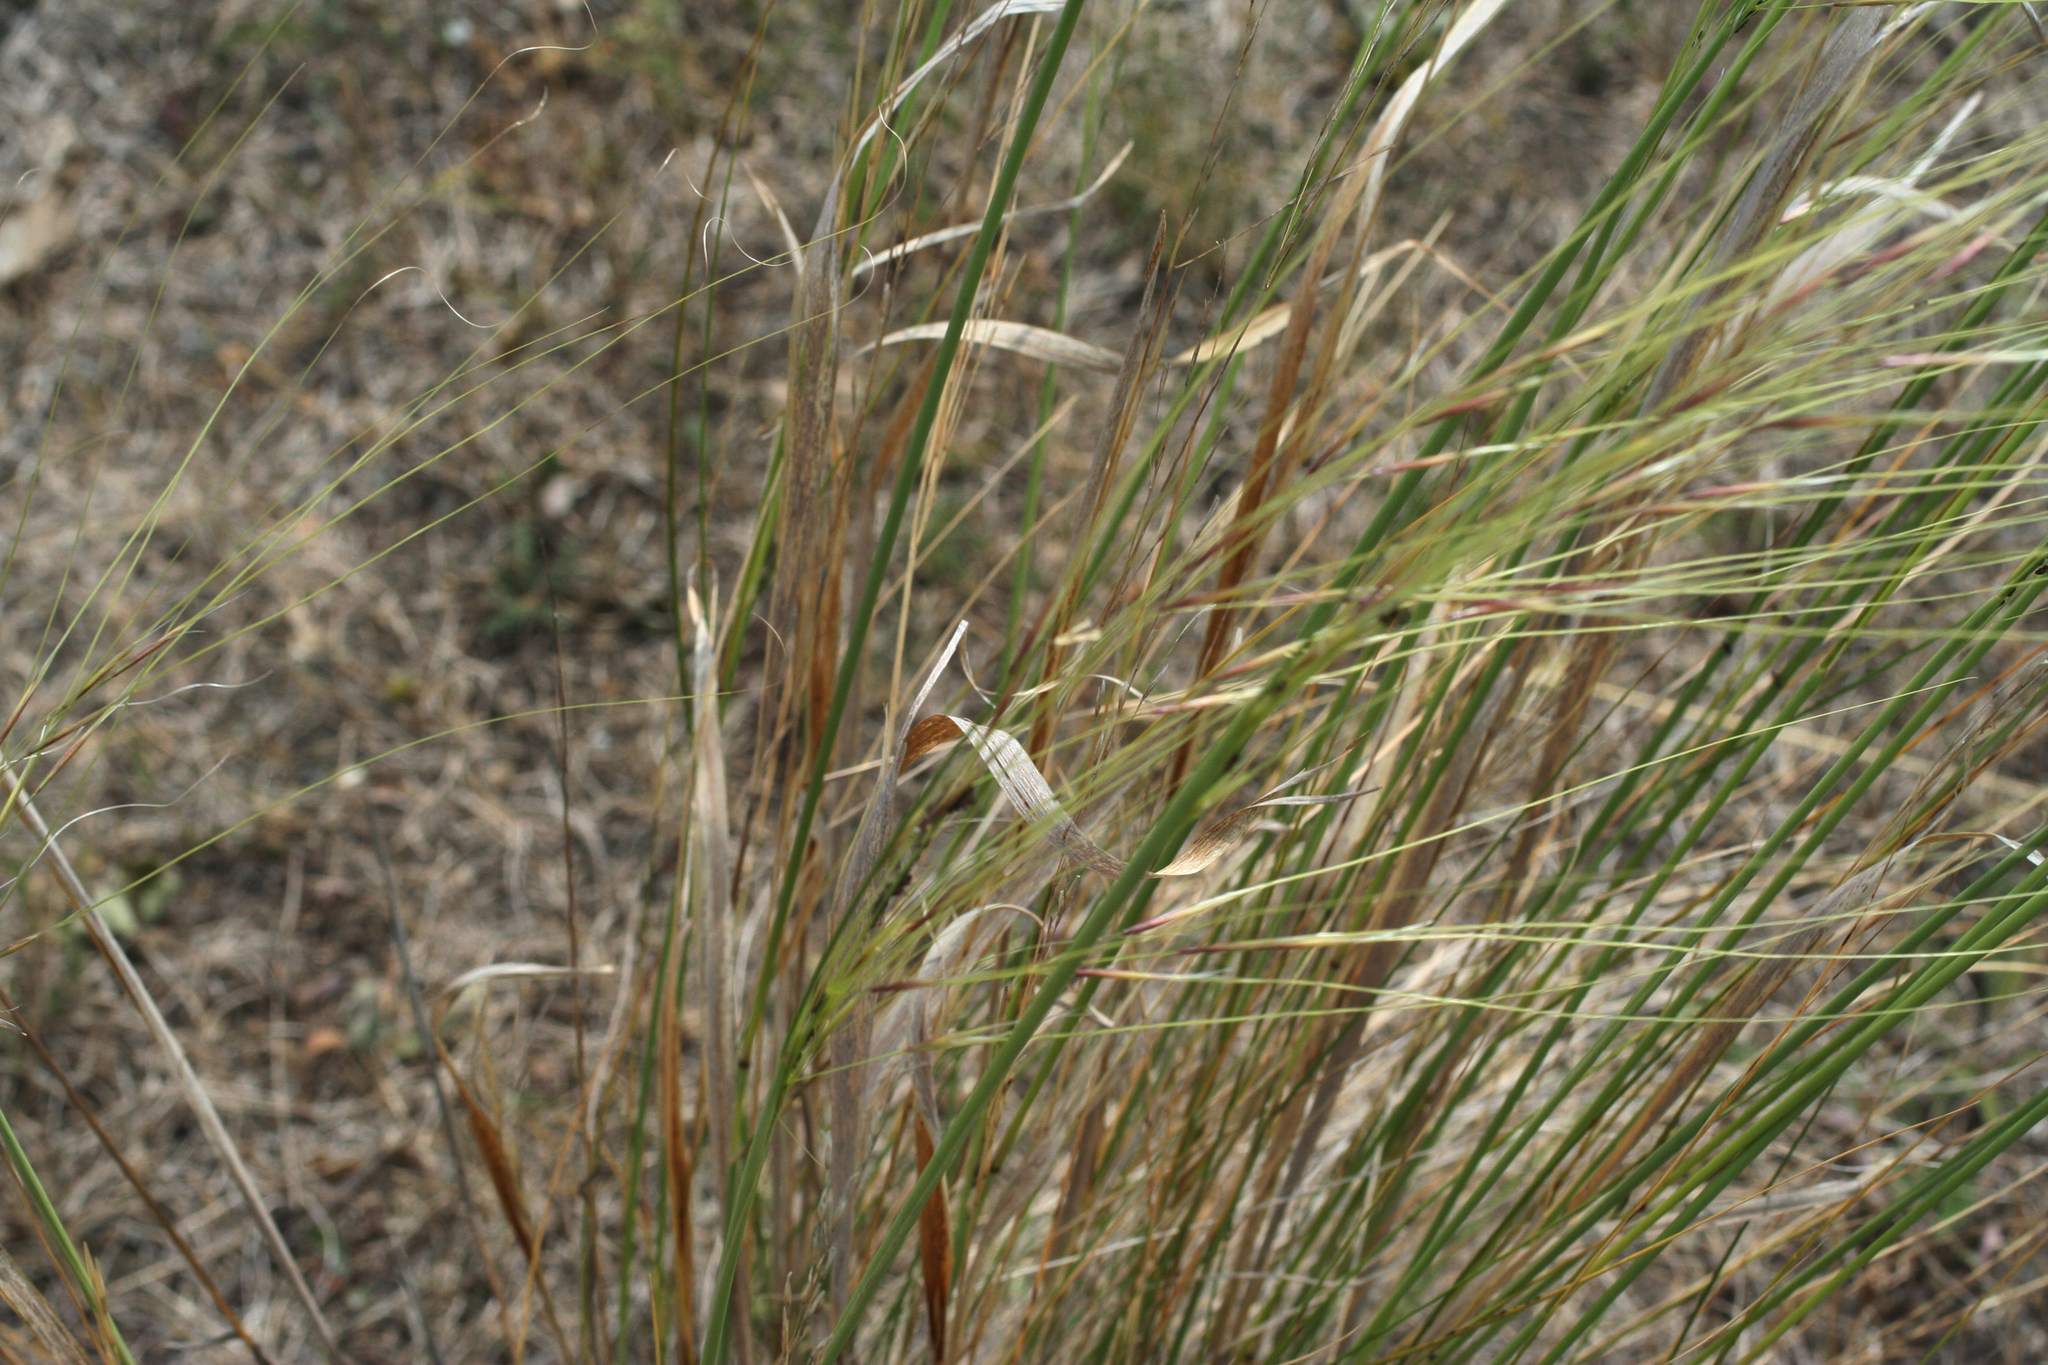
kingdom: Plantae
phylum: Tracheophyta
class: Liliopsida
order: Poales
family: Poaceae
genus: Stipa
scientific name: Stipa capillata
